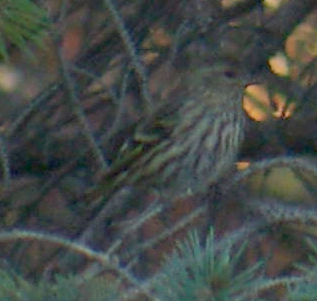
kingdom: Animalia
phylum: Chordata
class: Aves
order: Passeriformes
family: Fringillidae
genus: Spinus
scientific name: Spinus pinus
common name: Pine siskin
